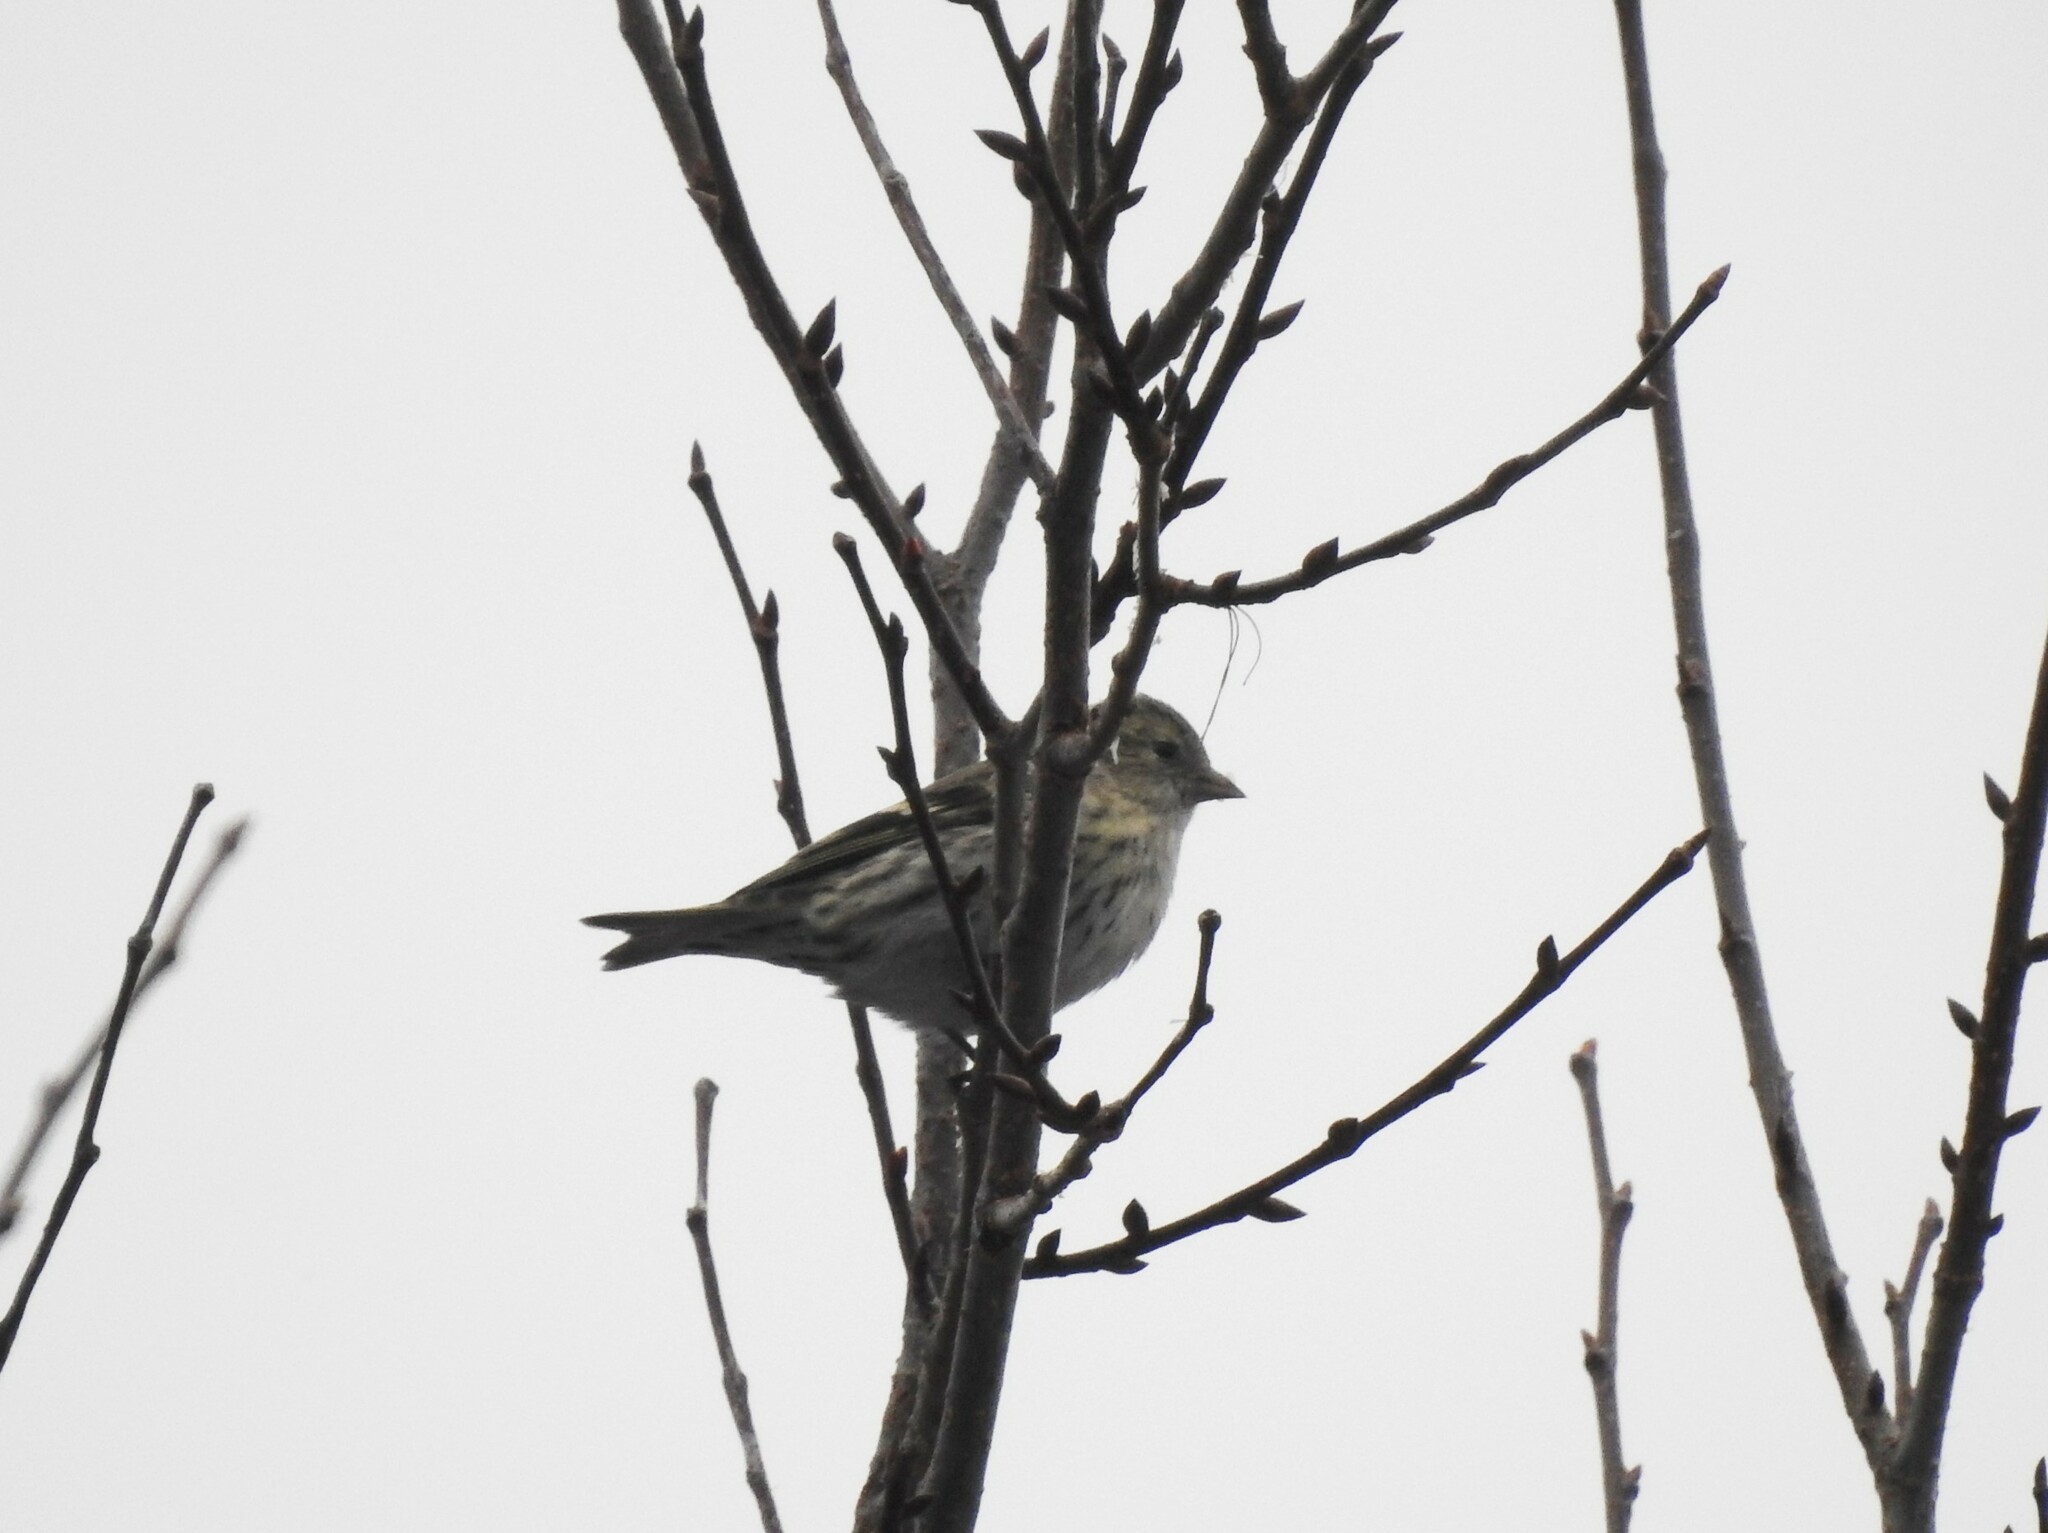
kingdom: Animalia
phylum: Chordata
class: Aves
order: Passeriformes
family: Fringillidae
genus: Spinus
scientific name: Spinus spinus
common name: Eurasian siskin
